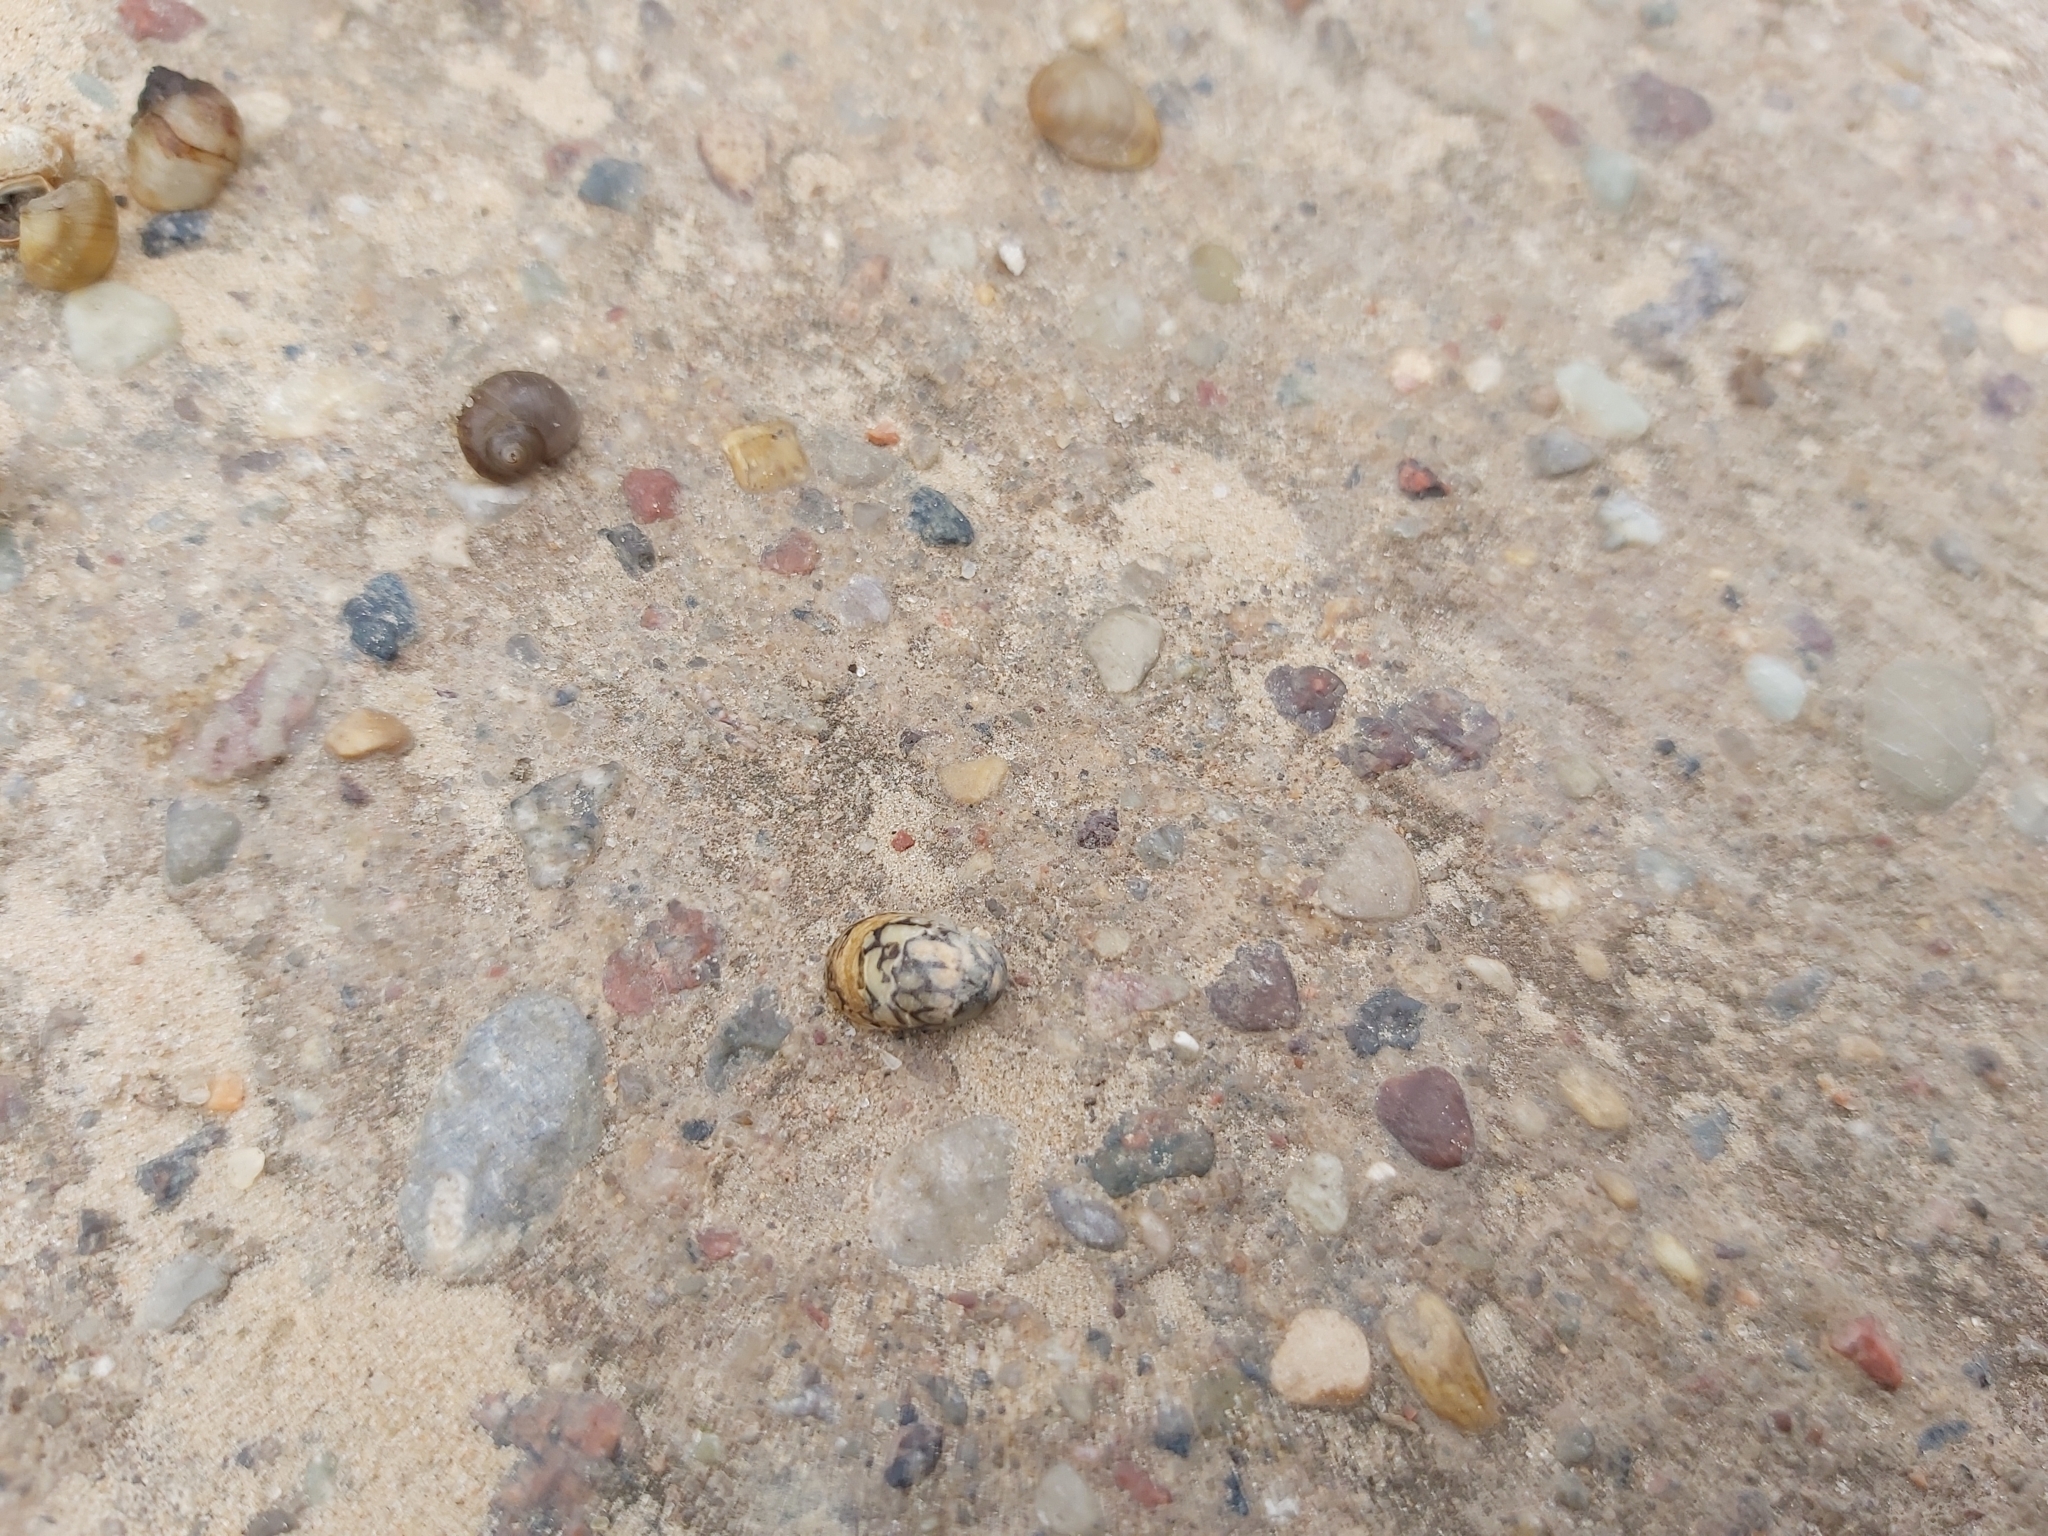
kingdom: Animalia
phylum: Mollusca
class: Gastropoda
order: Cycloneritida
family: Neritidae
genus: Theodoxus
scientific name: Theodoxus fluviatilis
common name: River nerite
